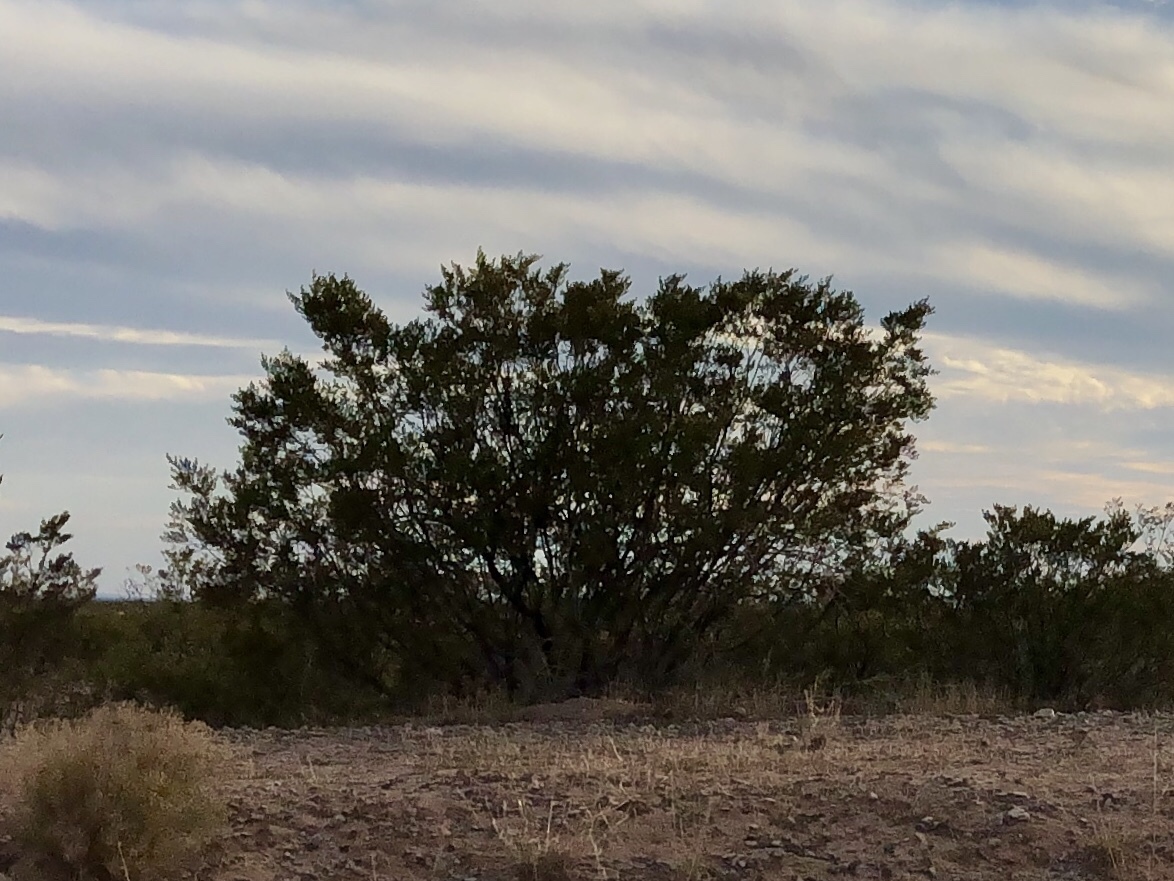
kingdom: Plantae
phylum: Tracheophyta
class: Magnoliopsida
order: Zygophyllales
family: Zygophyllaceae
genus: Larrea
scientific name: Larrea tridentata
